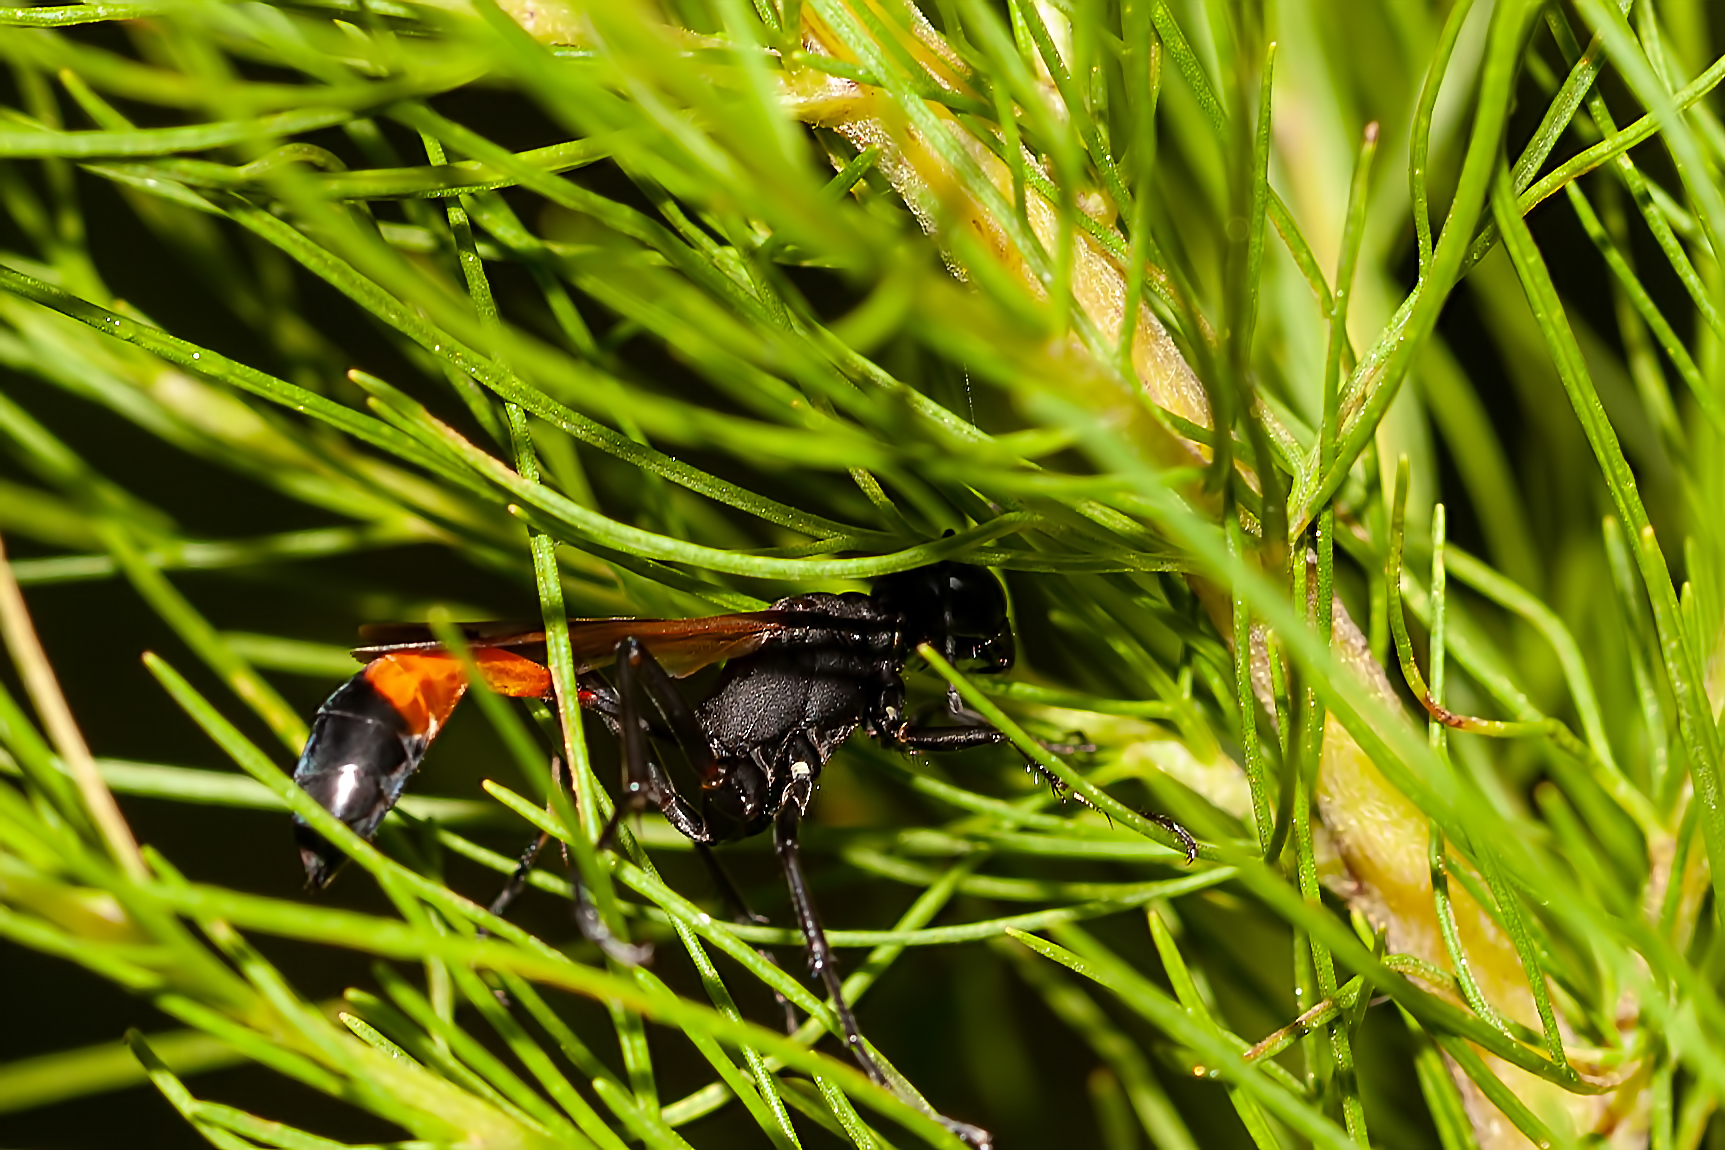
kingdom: Animalia
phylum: Arthropoda
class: Insecta
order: Hymenoptera
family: Sphecidae
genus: Ammophila
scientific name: Ammophila pictipennis
